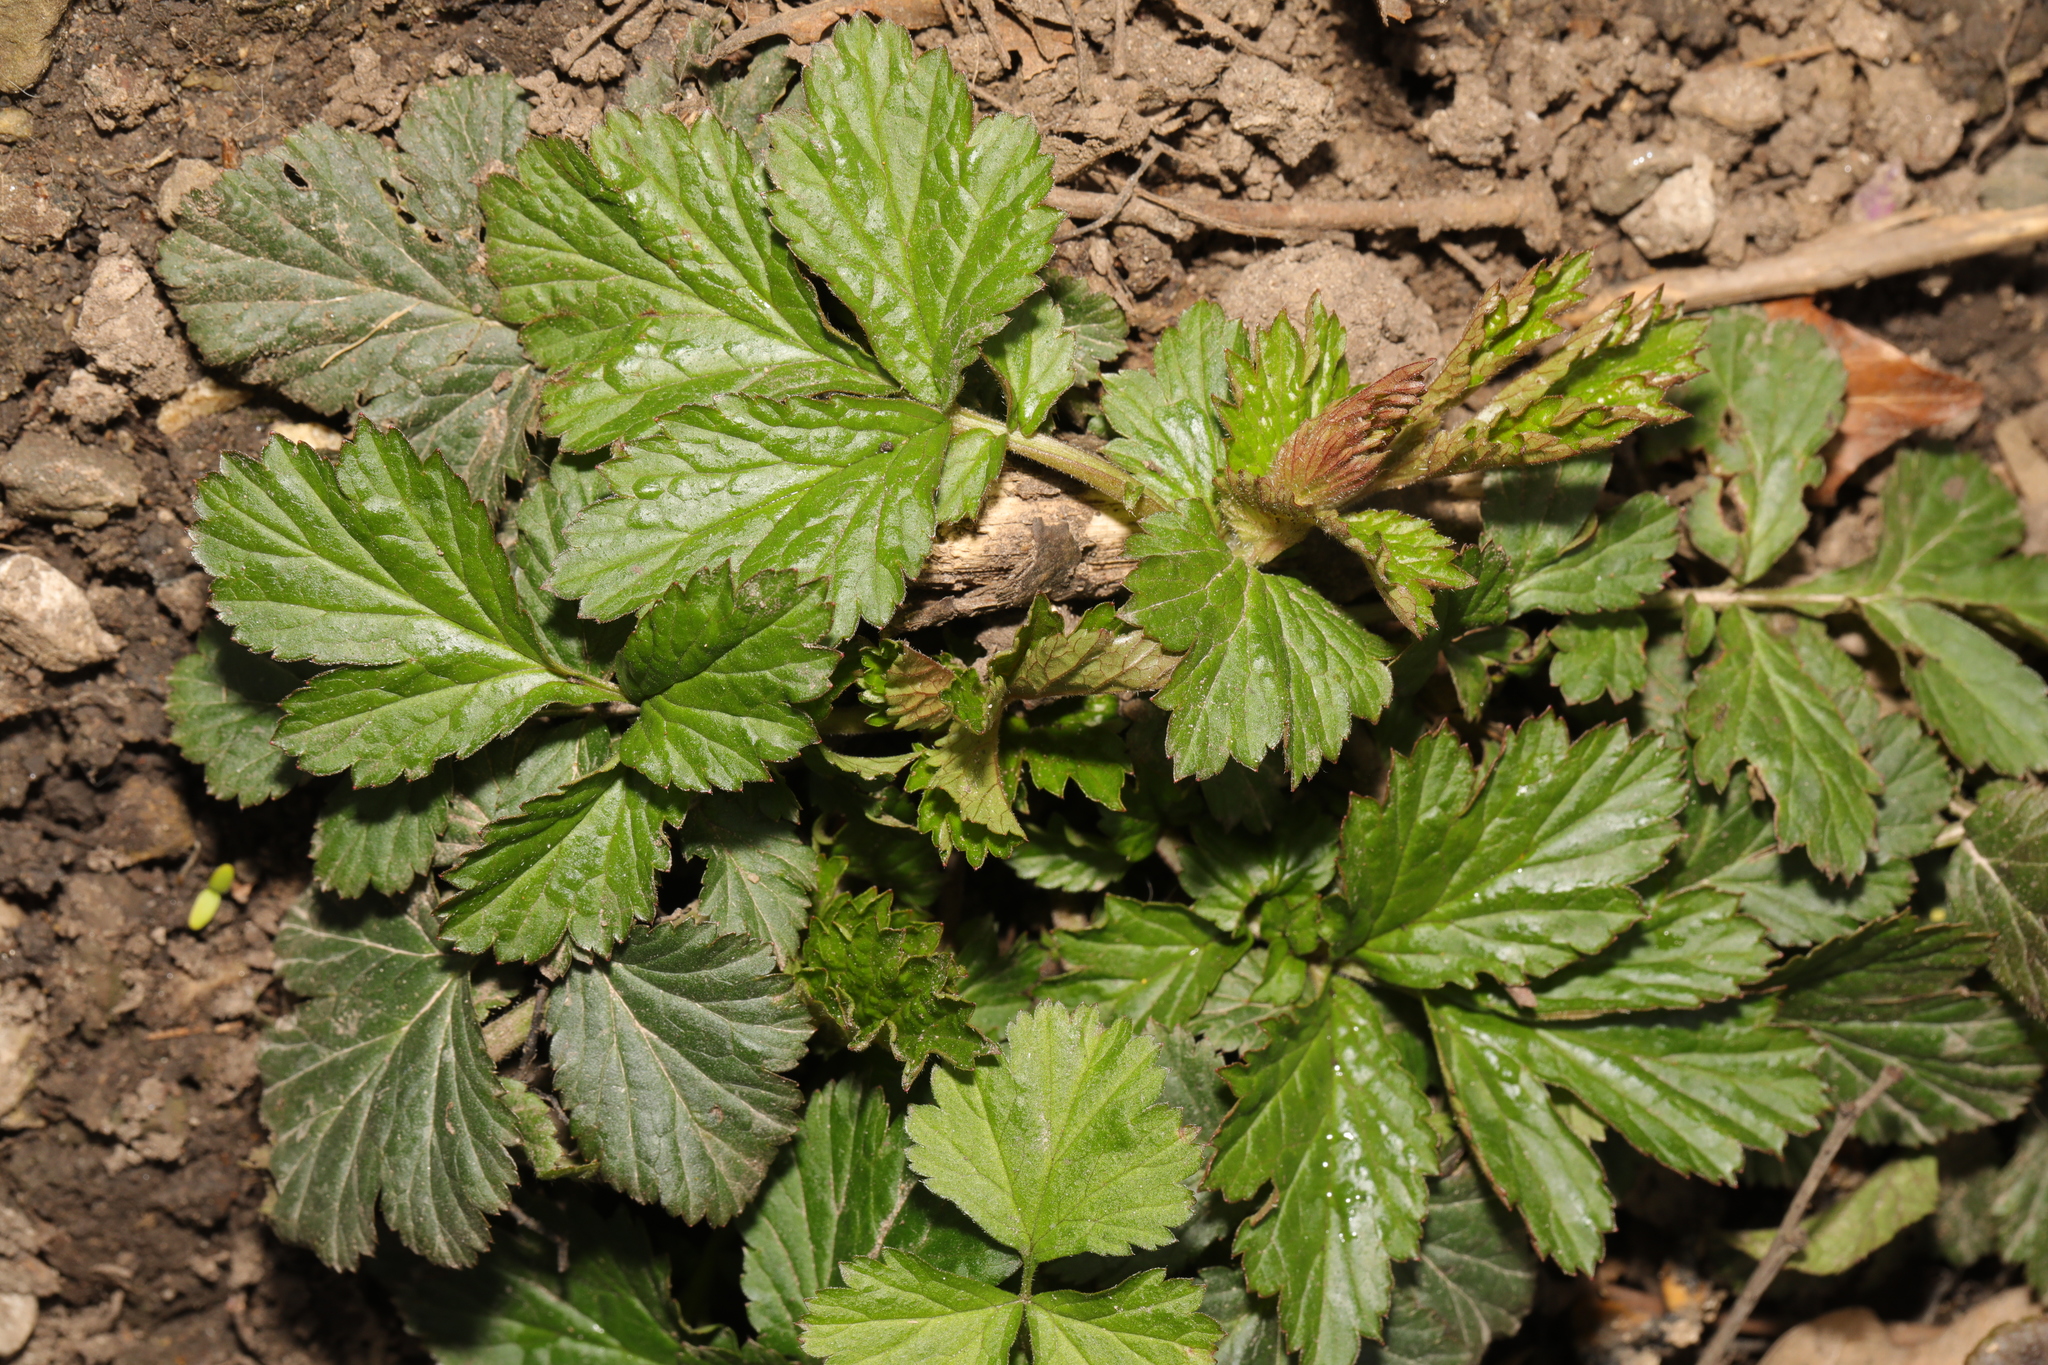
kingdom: Plantae
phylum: Tracheophyta
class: Magnoliopsida
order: Rosales
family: Rosaceae
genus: Geum
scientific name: Geum urbanum
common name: Wood avens
